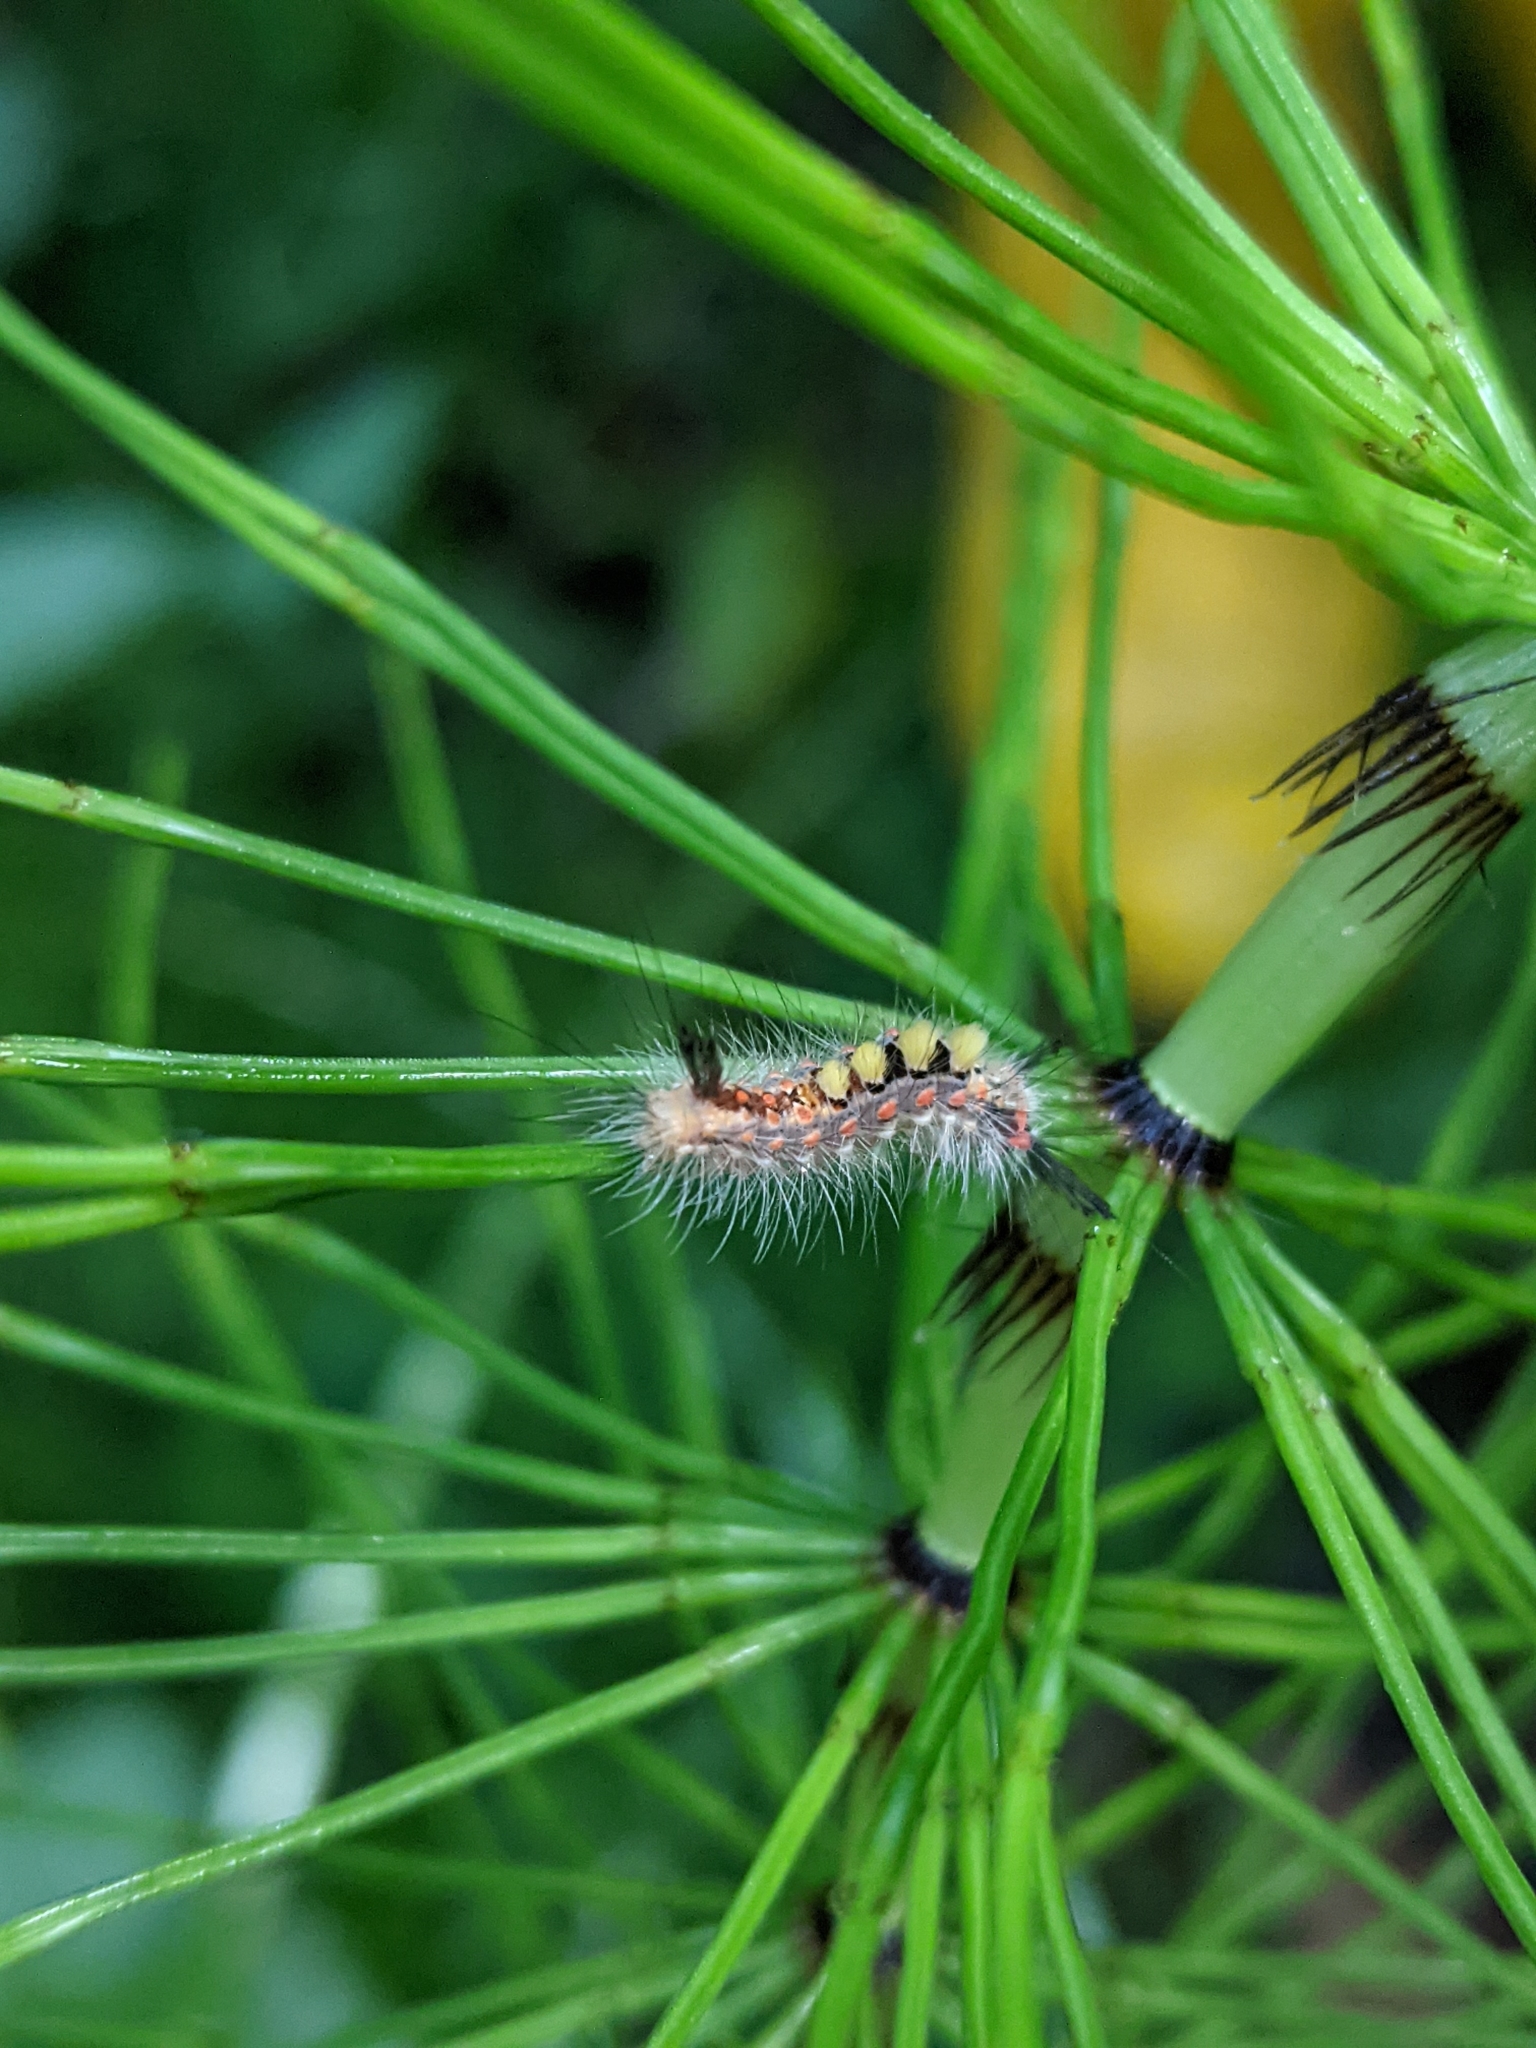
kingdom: Animalia
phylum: Arthropoda
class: Insecta
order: Lepidoptera
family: Erebidae
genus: Orgyia
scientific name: Orgyia antiqua
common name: Vapourer
